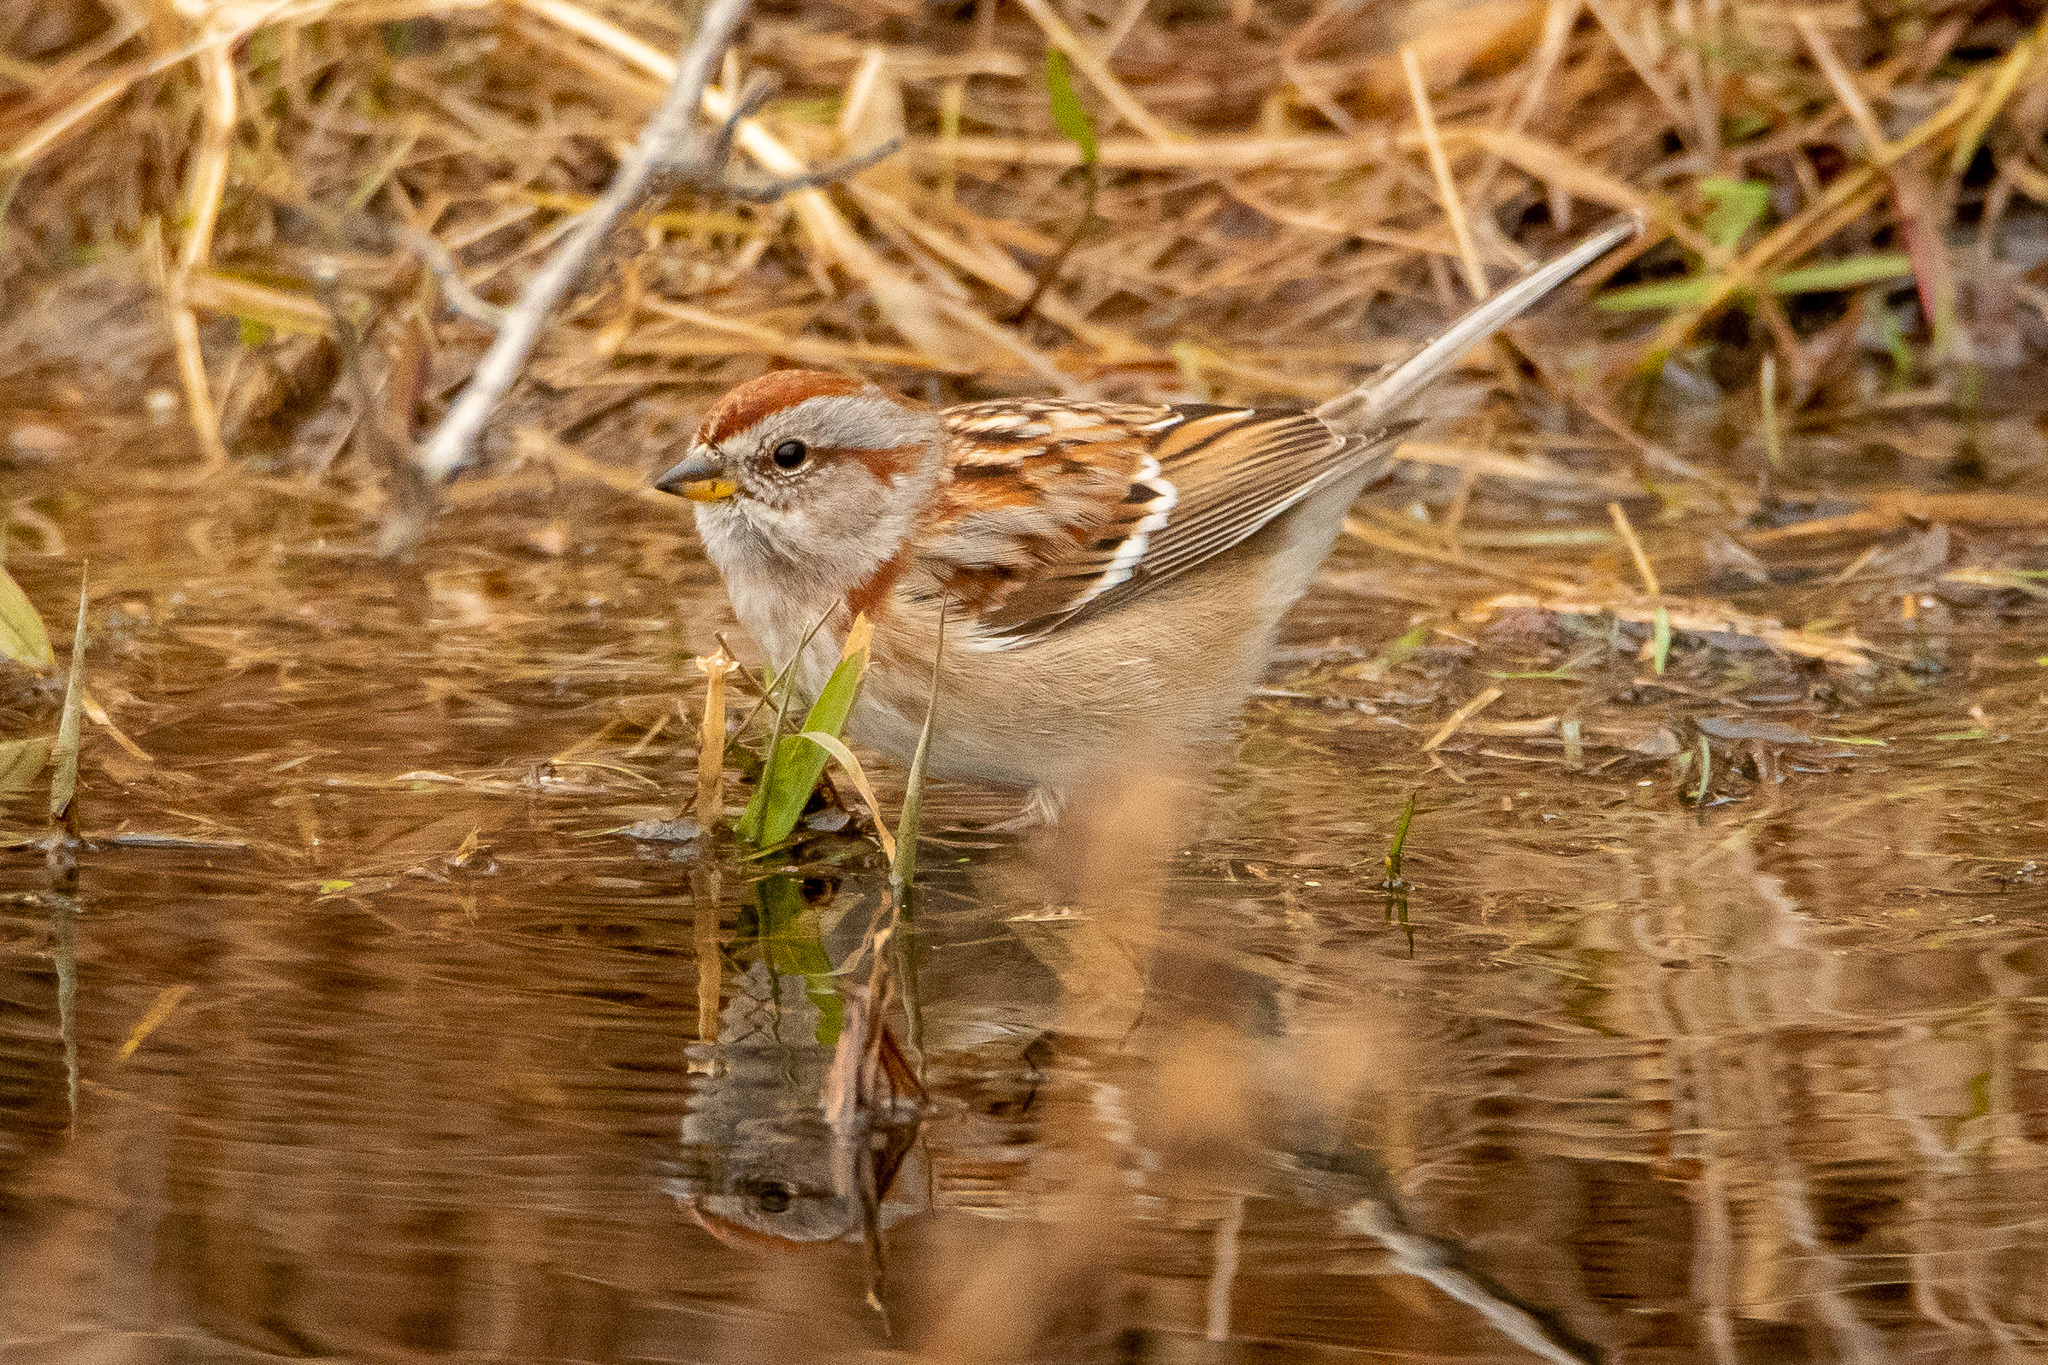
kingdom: Animalia
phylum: Chordata
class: Aves
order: Passeriformes
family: Passerellidae
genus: Spizelloides
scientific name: Spizelloides arborea
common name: American tree sparrow
